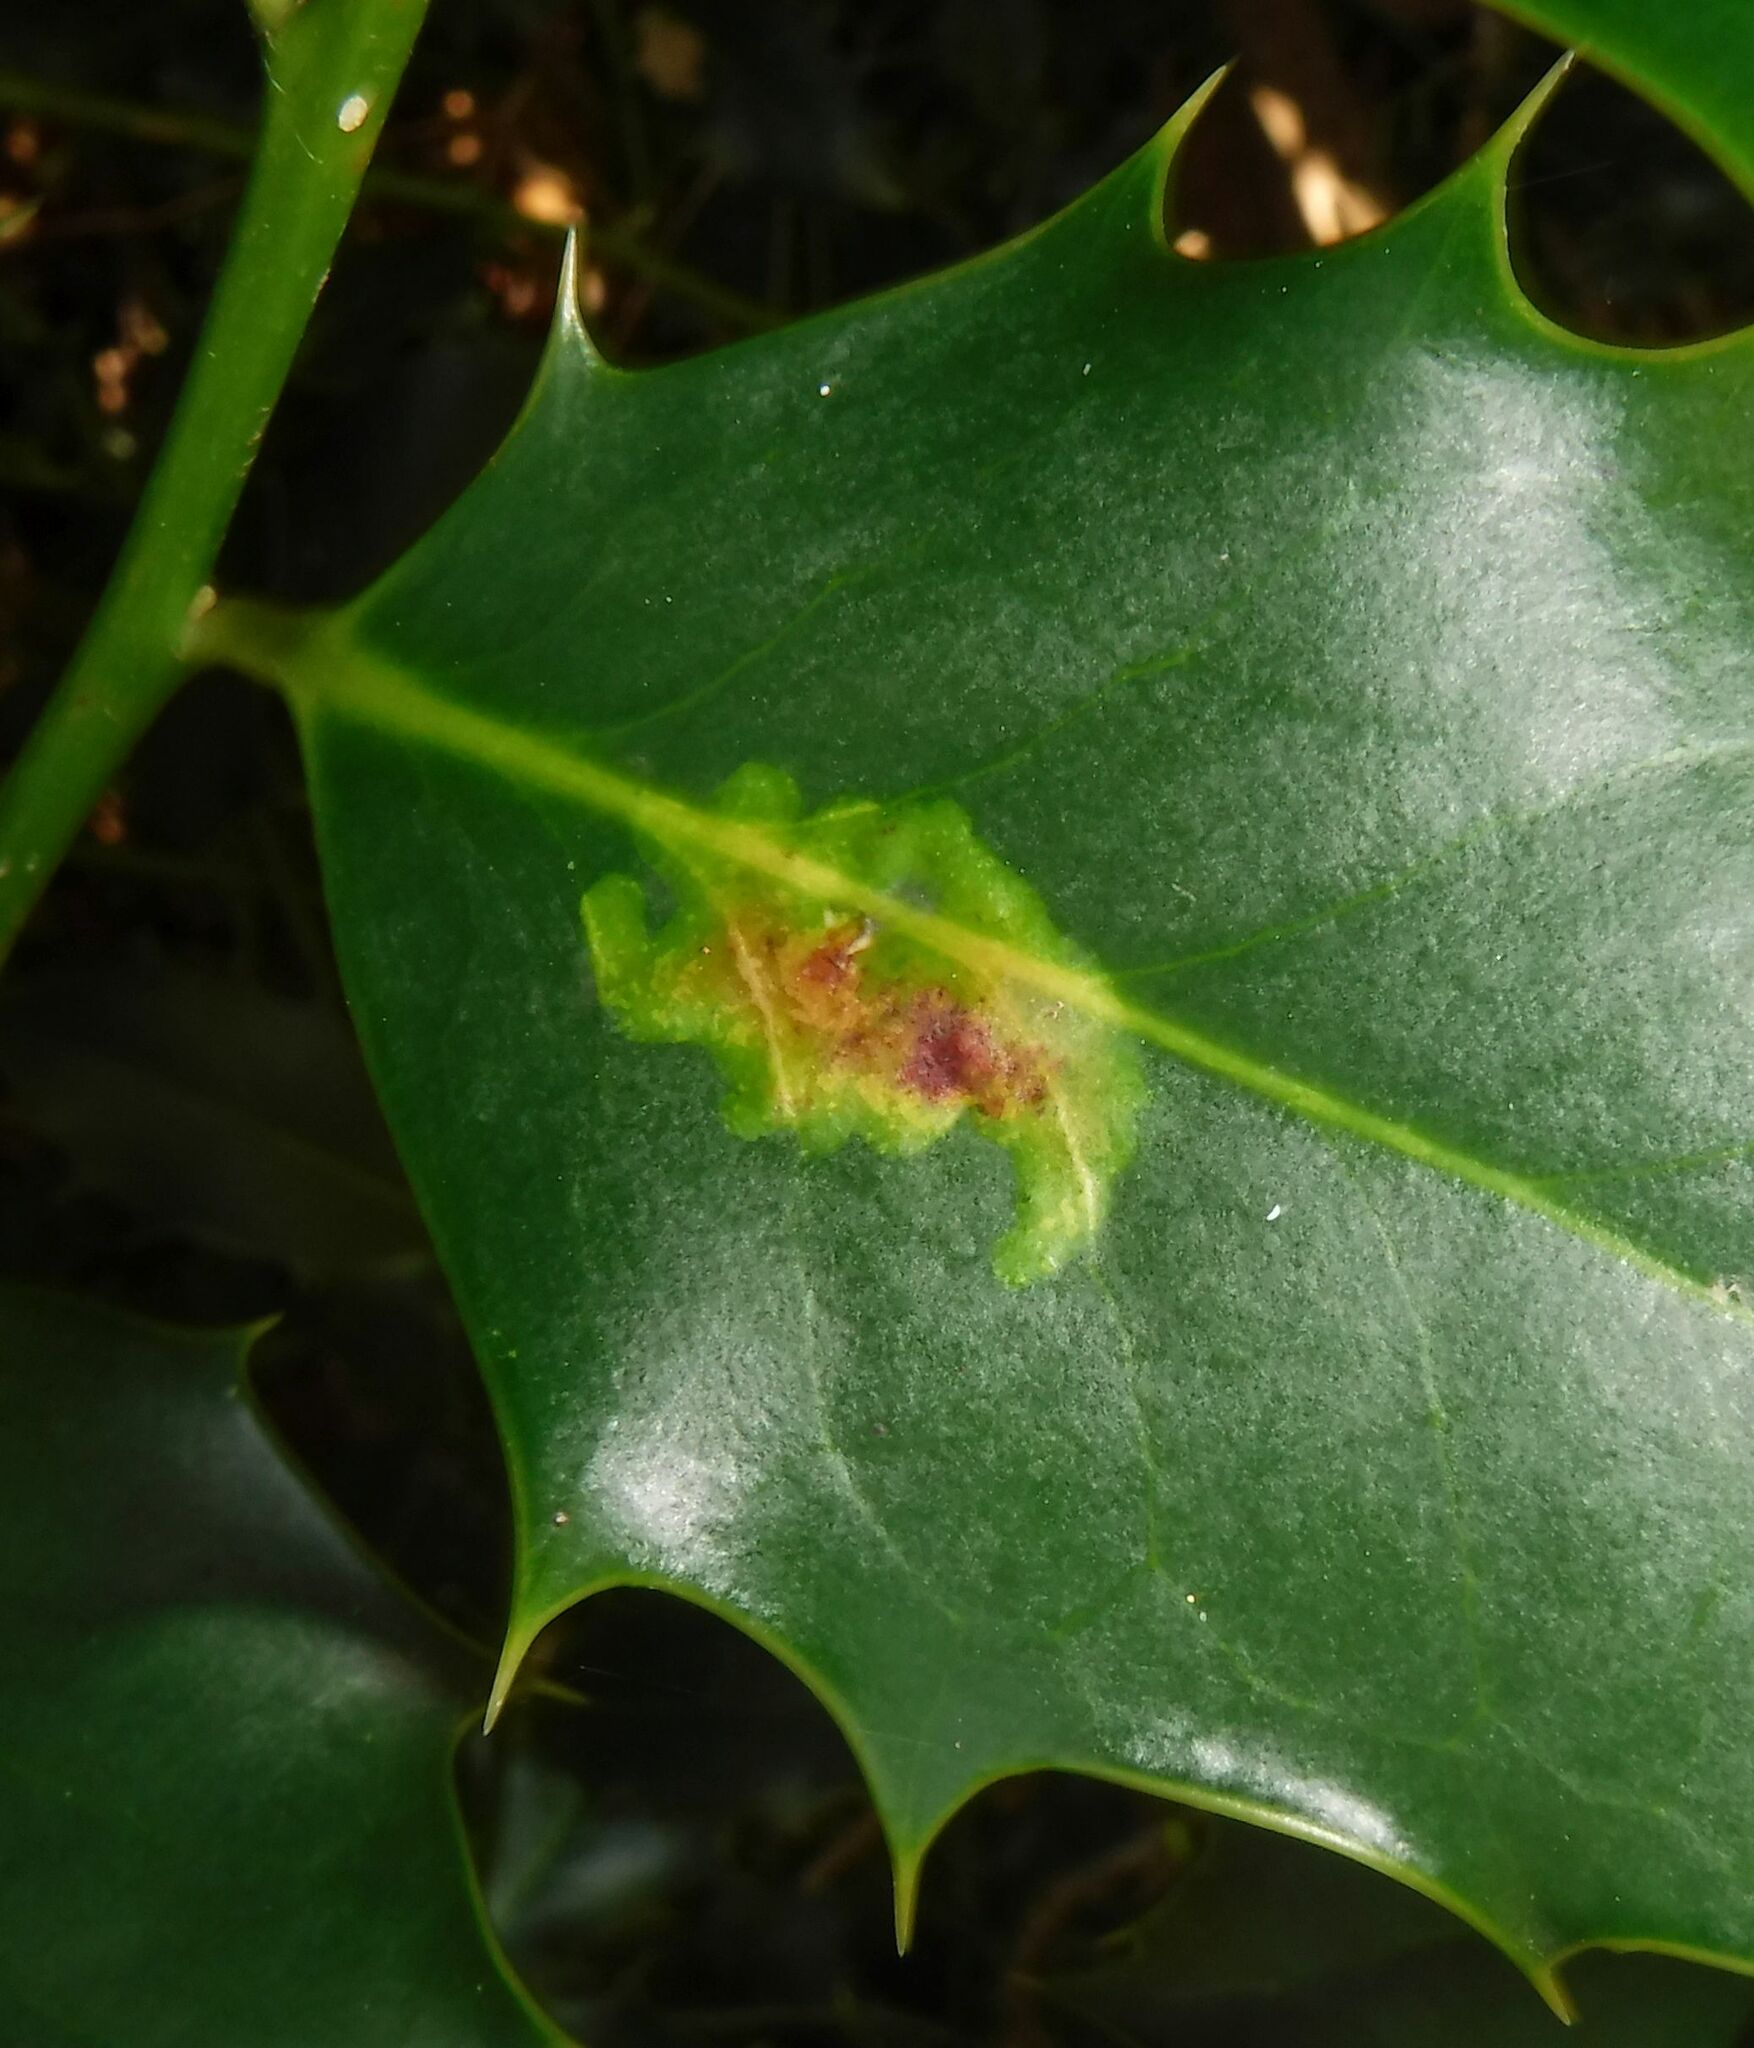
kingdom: Animalia
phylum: Arthropoda
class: Insecta
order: Diptera
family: Agromyzidae
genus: Phytomyza
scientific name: Phytomyza ilicis
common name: Holly leafminer
